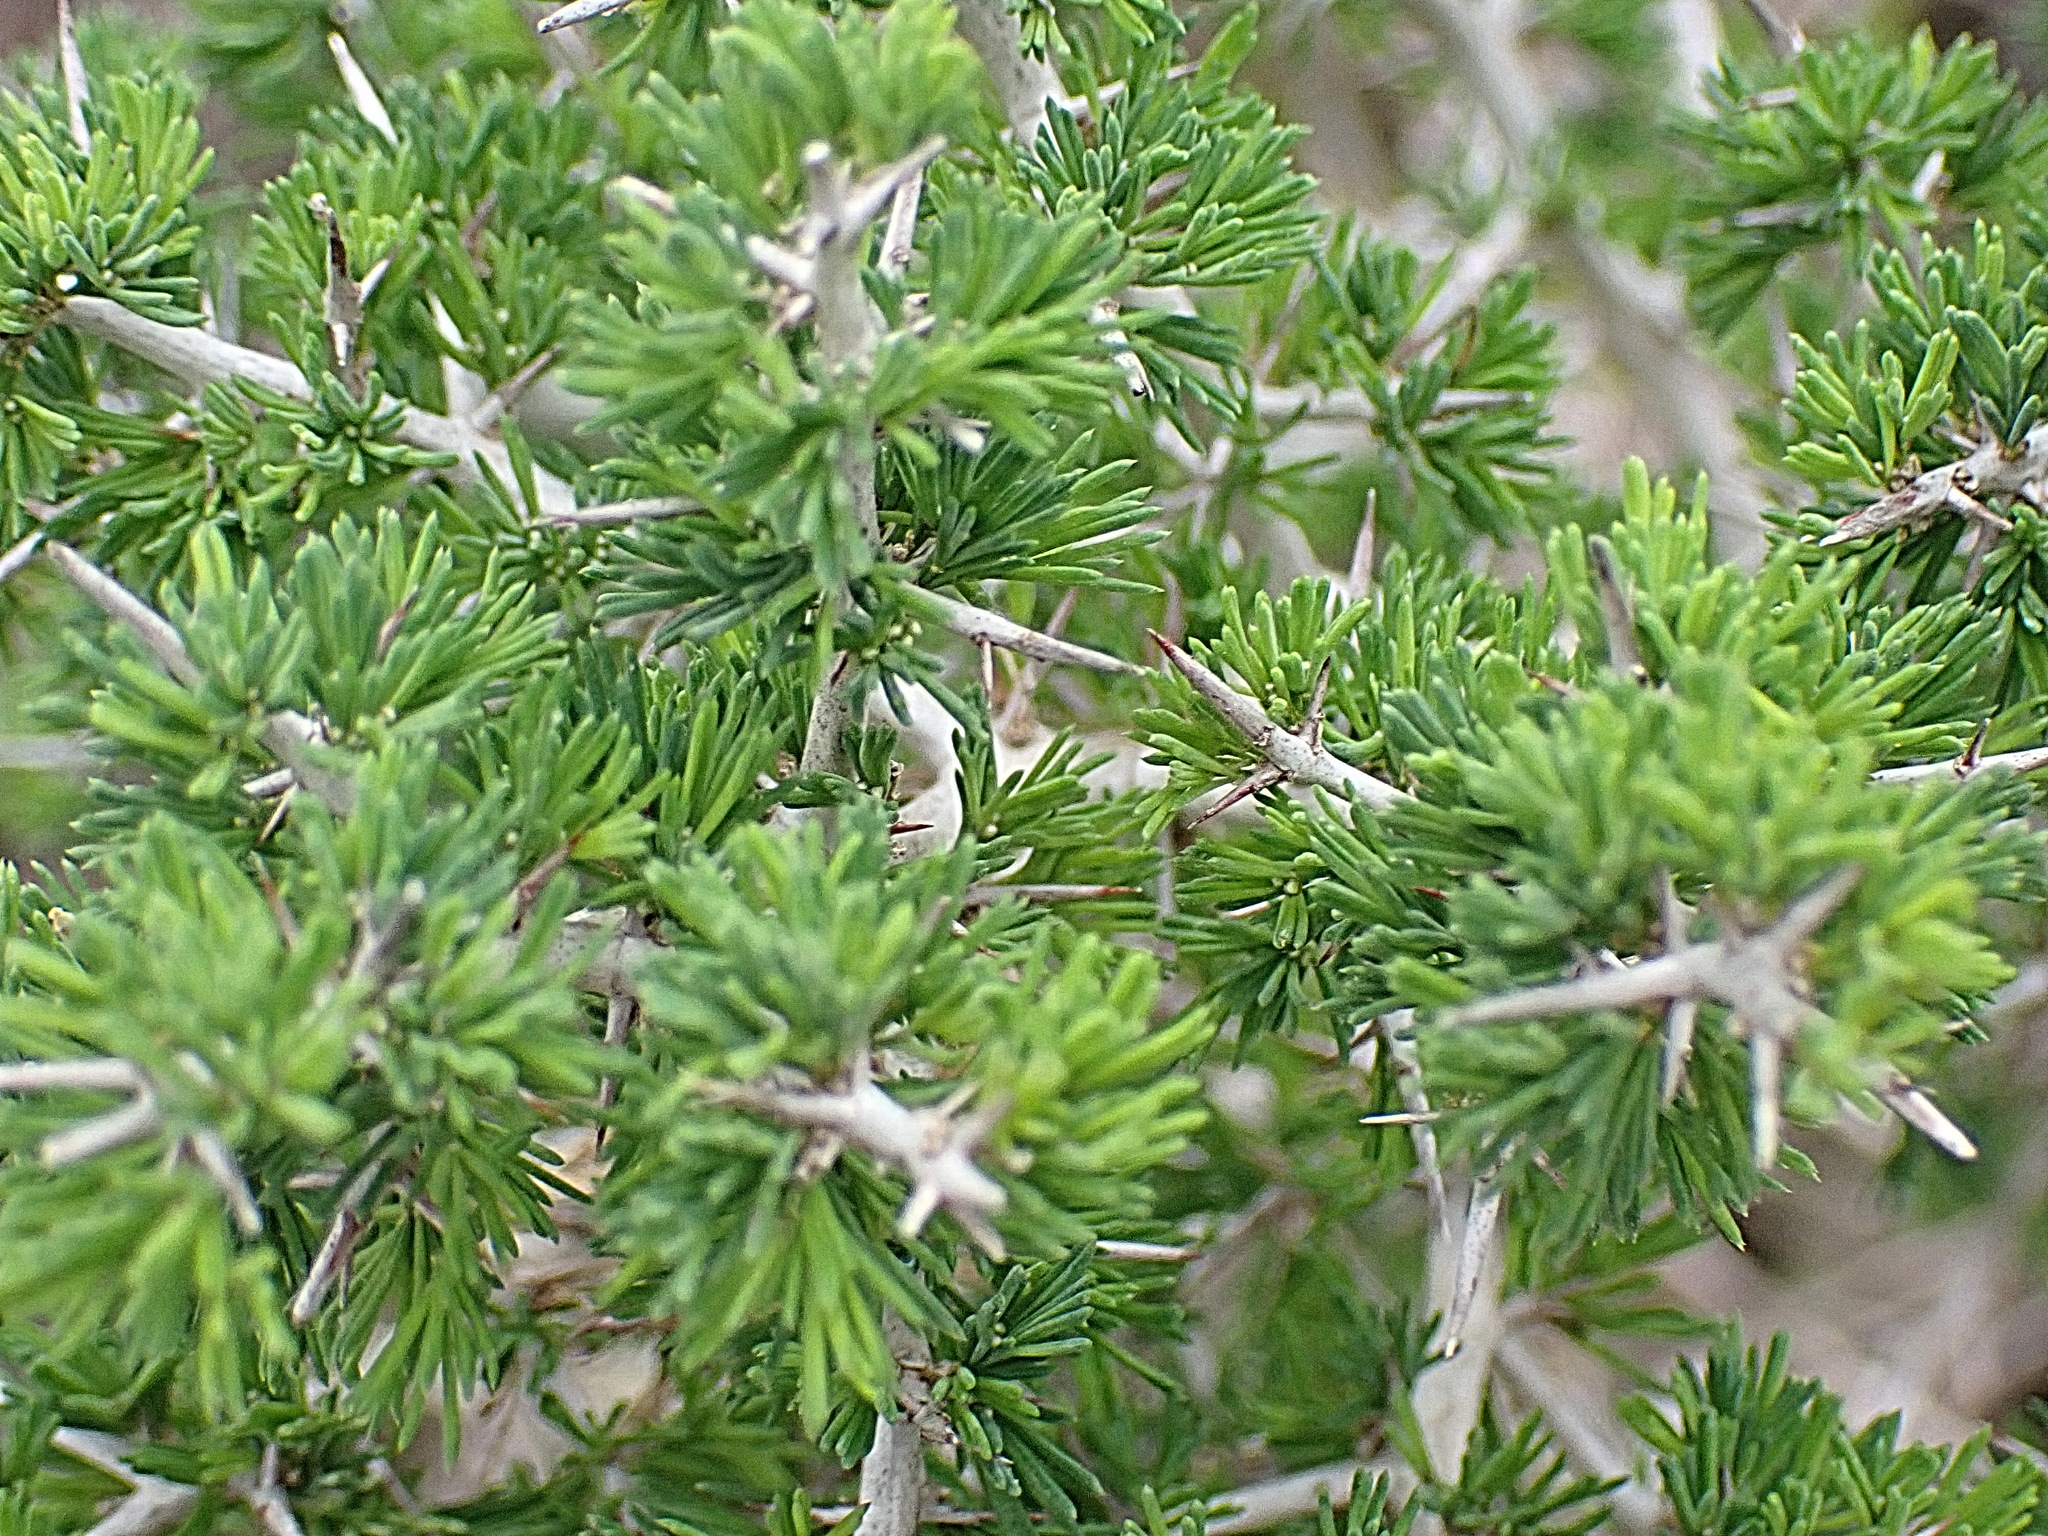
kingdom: Plantae
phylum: Tracheophyta
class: Liliopsida
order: Asparagales
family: Asparagaceae
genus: Asparagus
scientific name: Asparagus mariae
